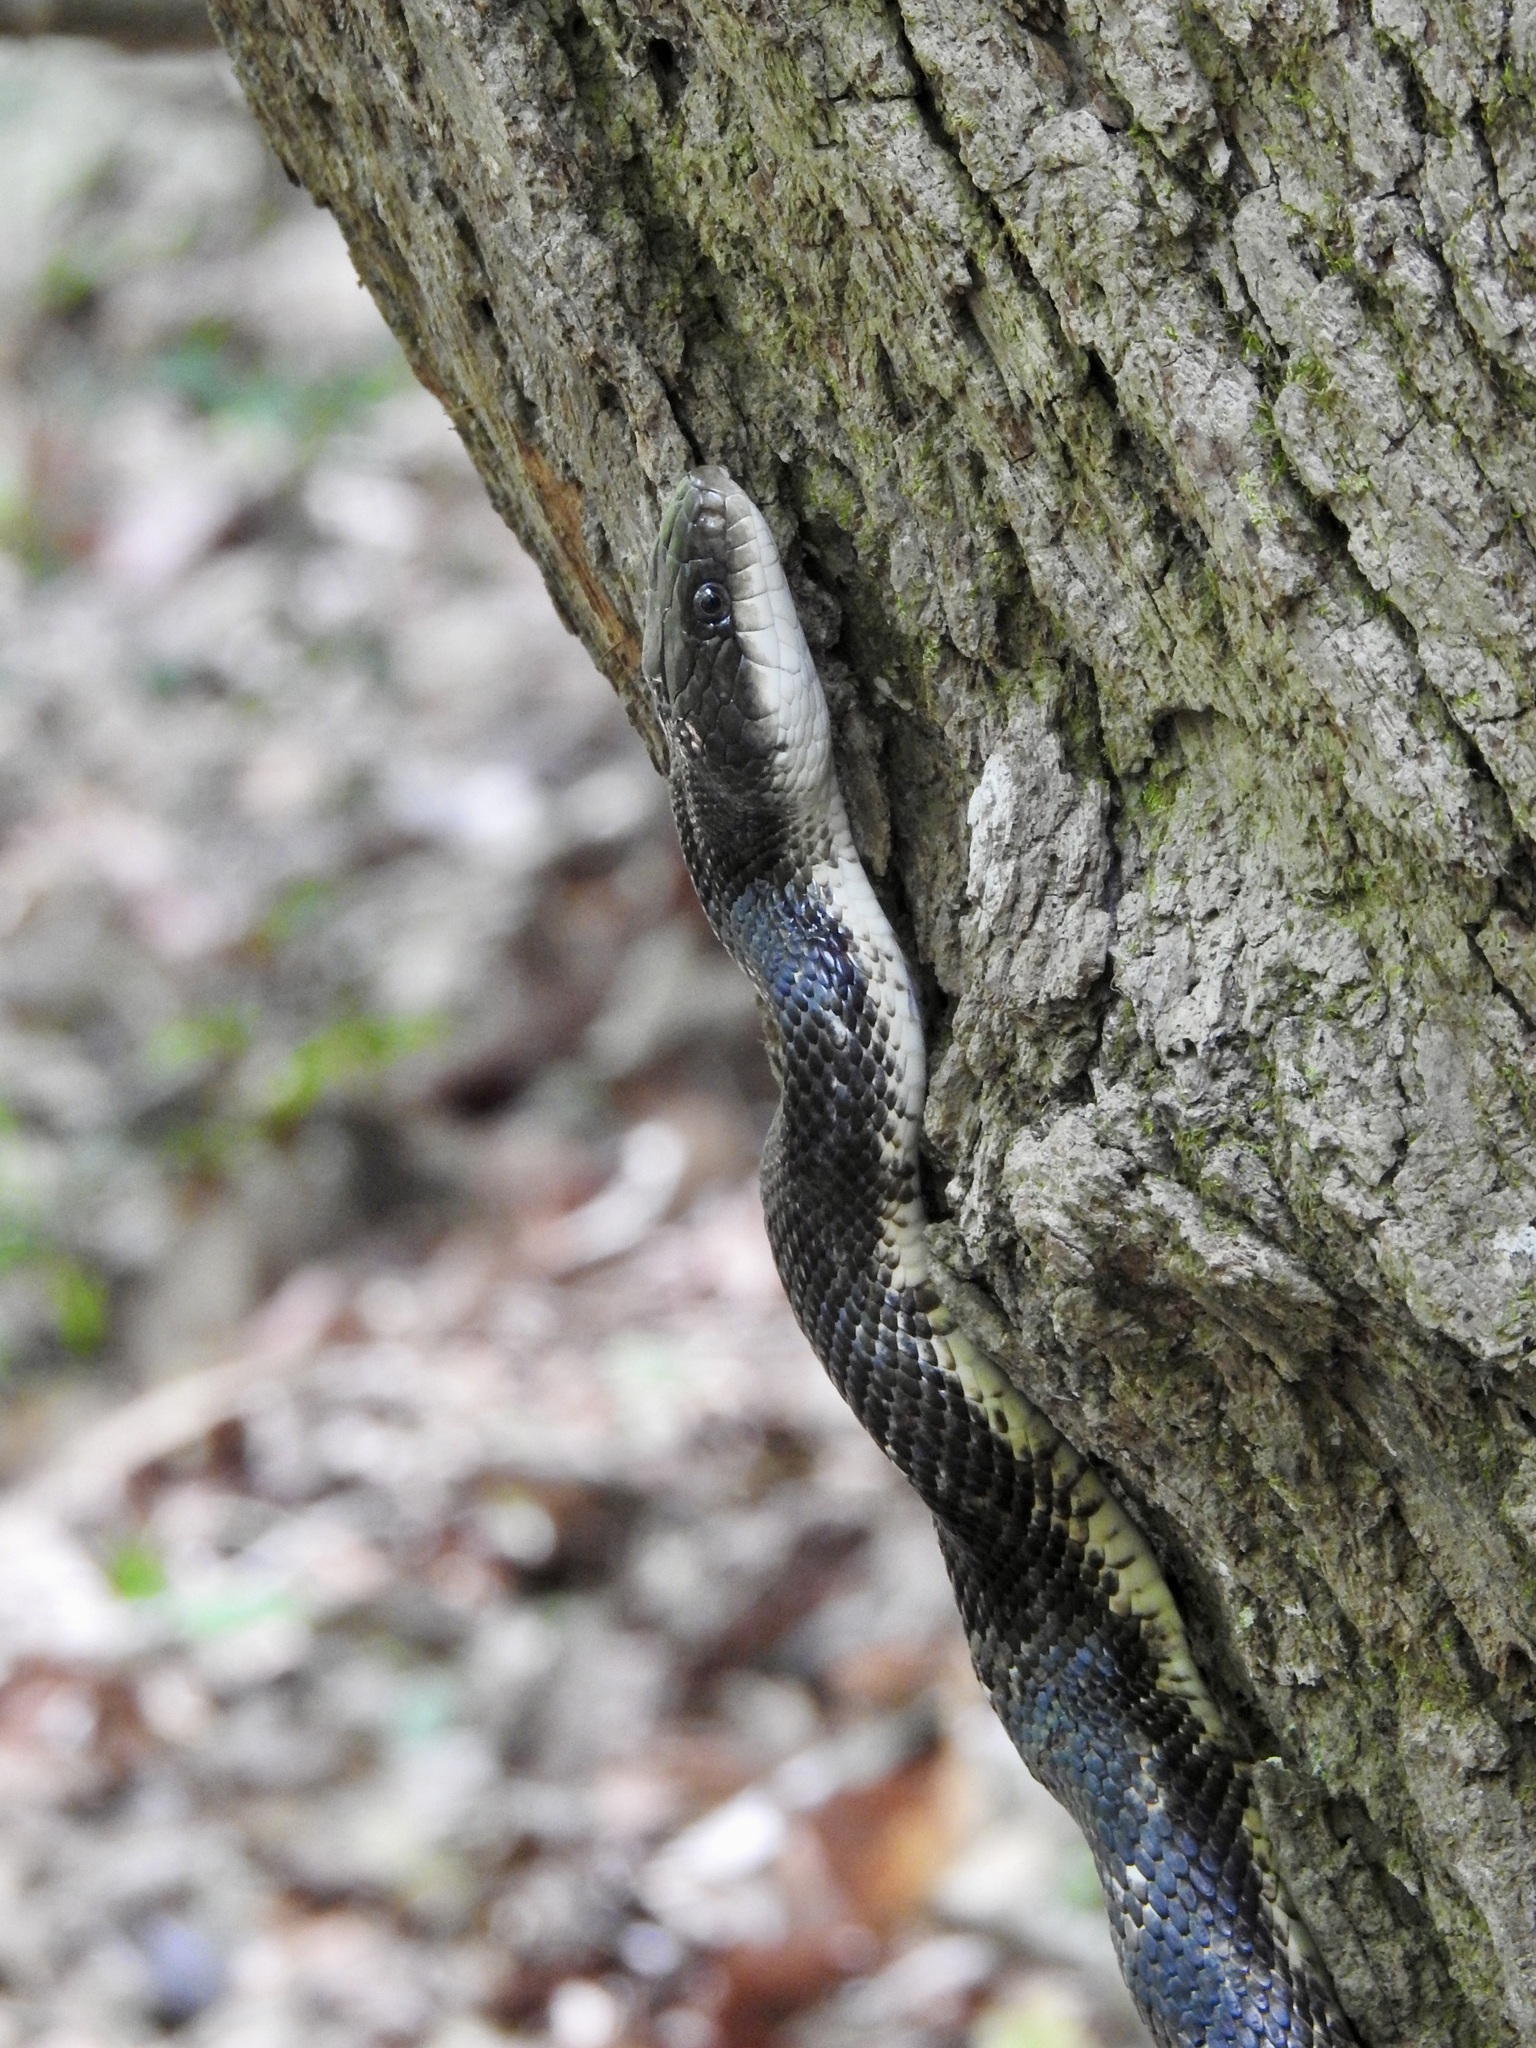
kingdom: Animalia
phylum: Chordata
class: Squamata
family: Colubridae
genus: Pantherophis
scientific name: Pantherophis obsoletus
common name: Black rat snake
